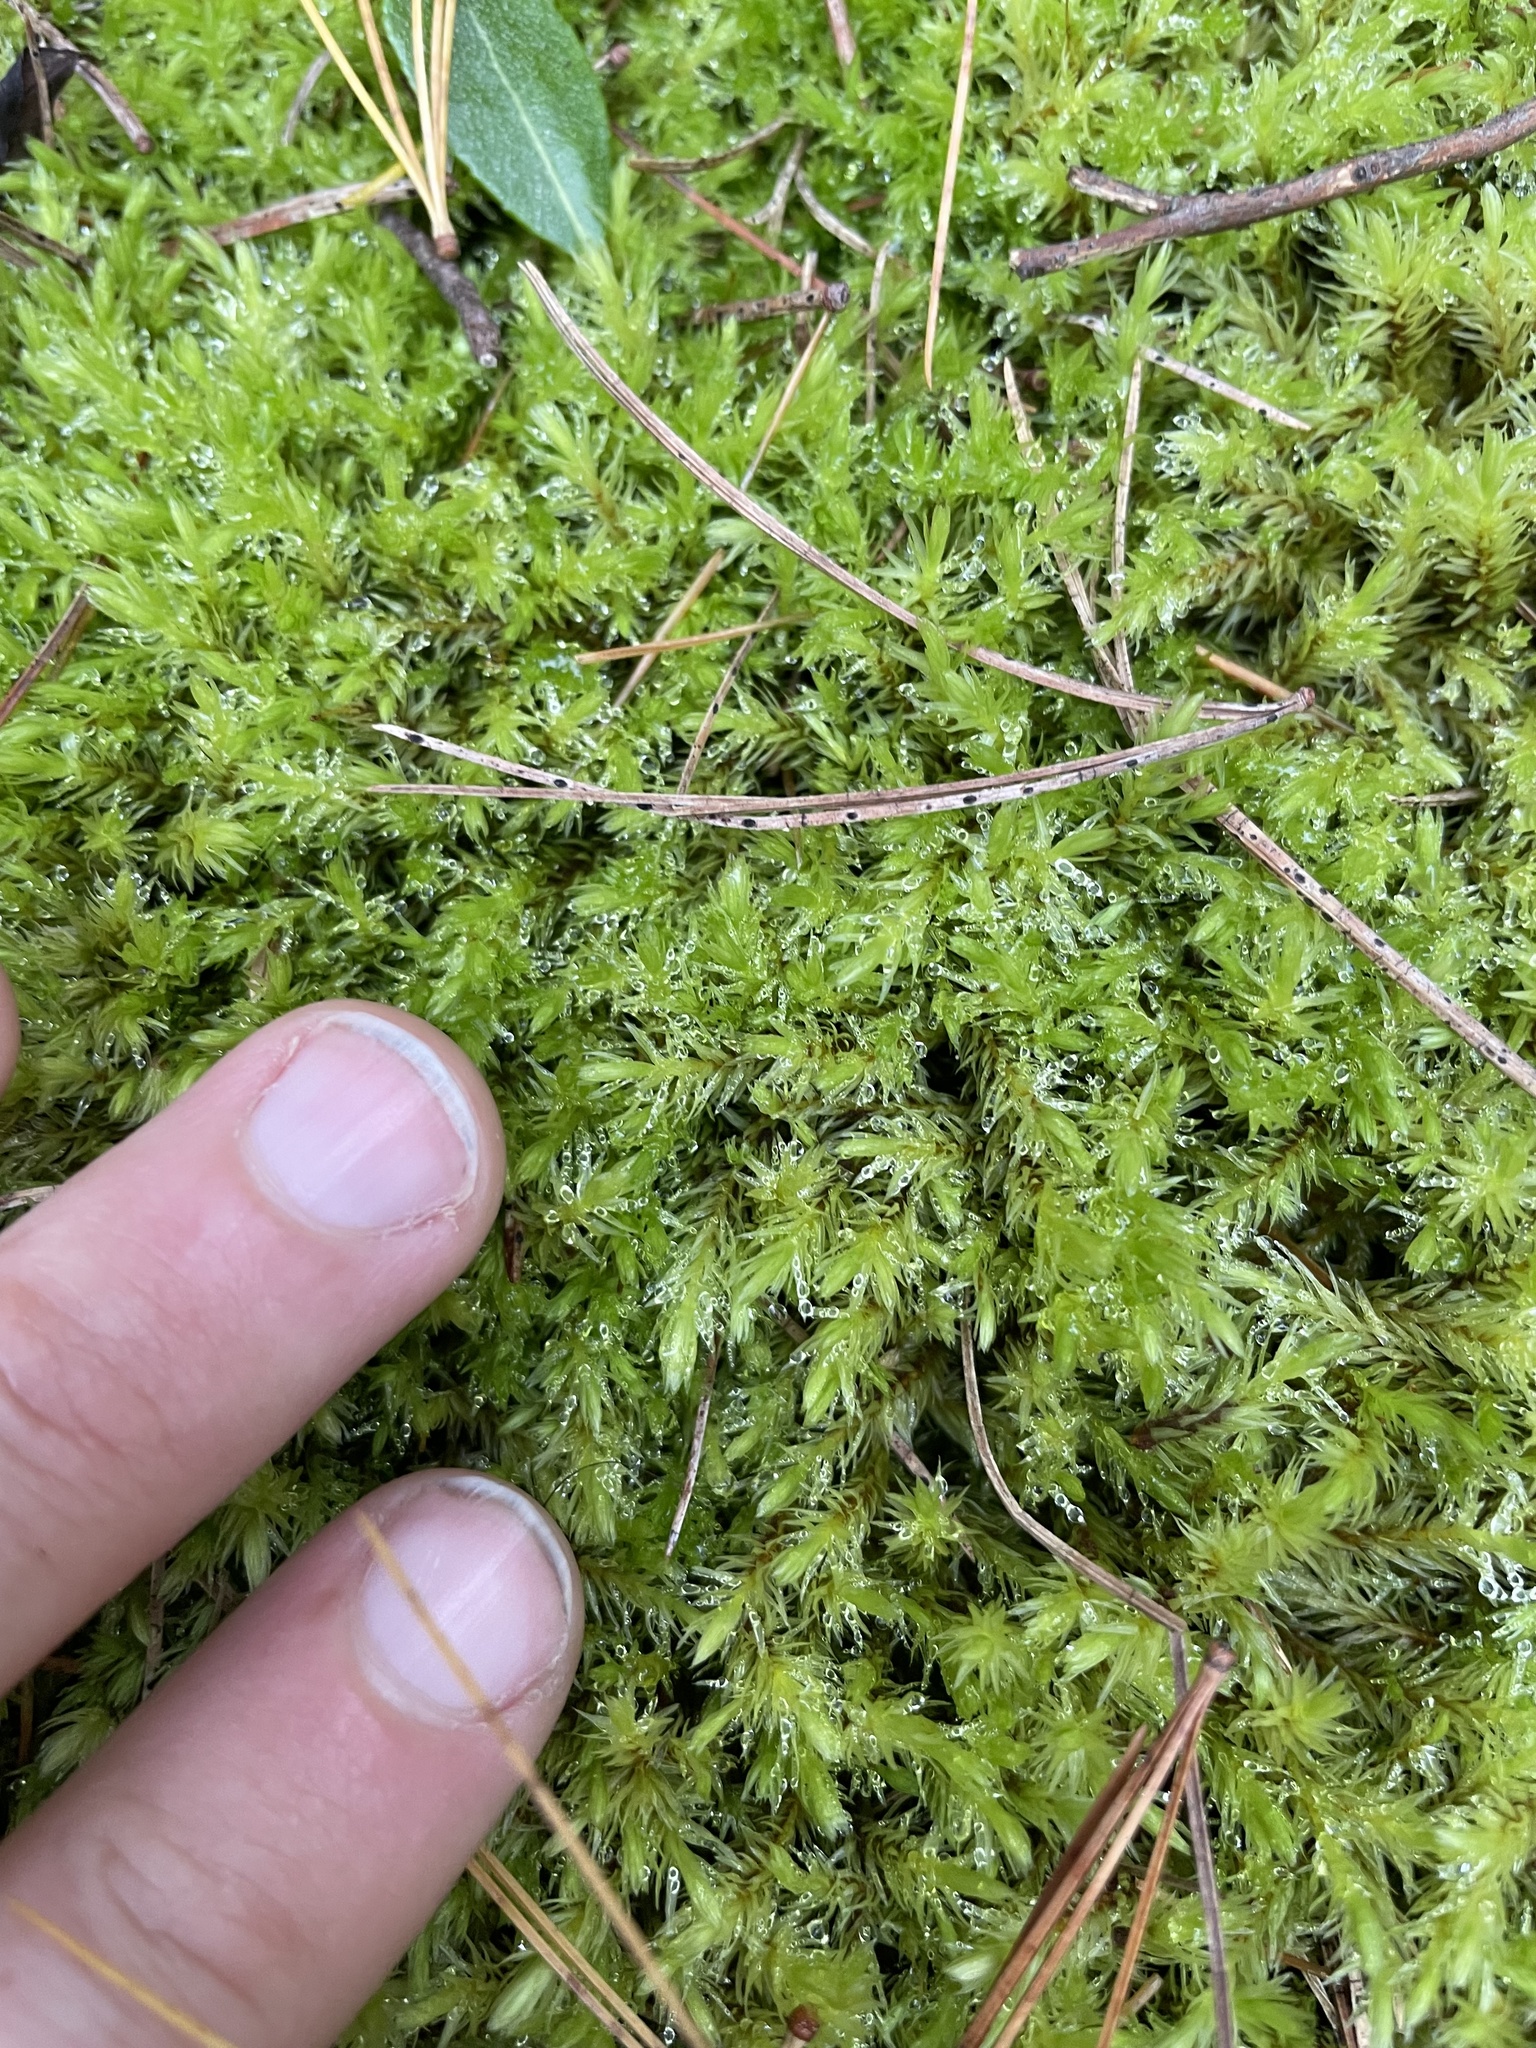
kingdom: Plantae
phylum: Bryophyta
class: Bryopsida
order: Aulacomniales
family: Aulacomniaceae
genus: Aulacomnium
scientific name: Aulacomnium palustre
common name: Bog groove-moss
